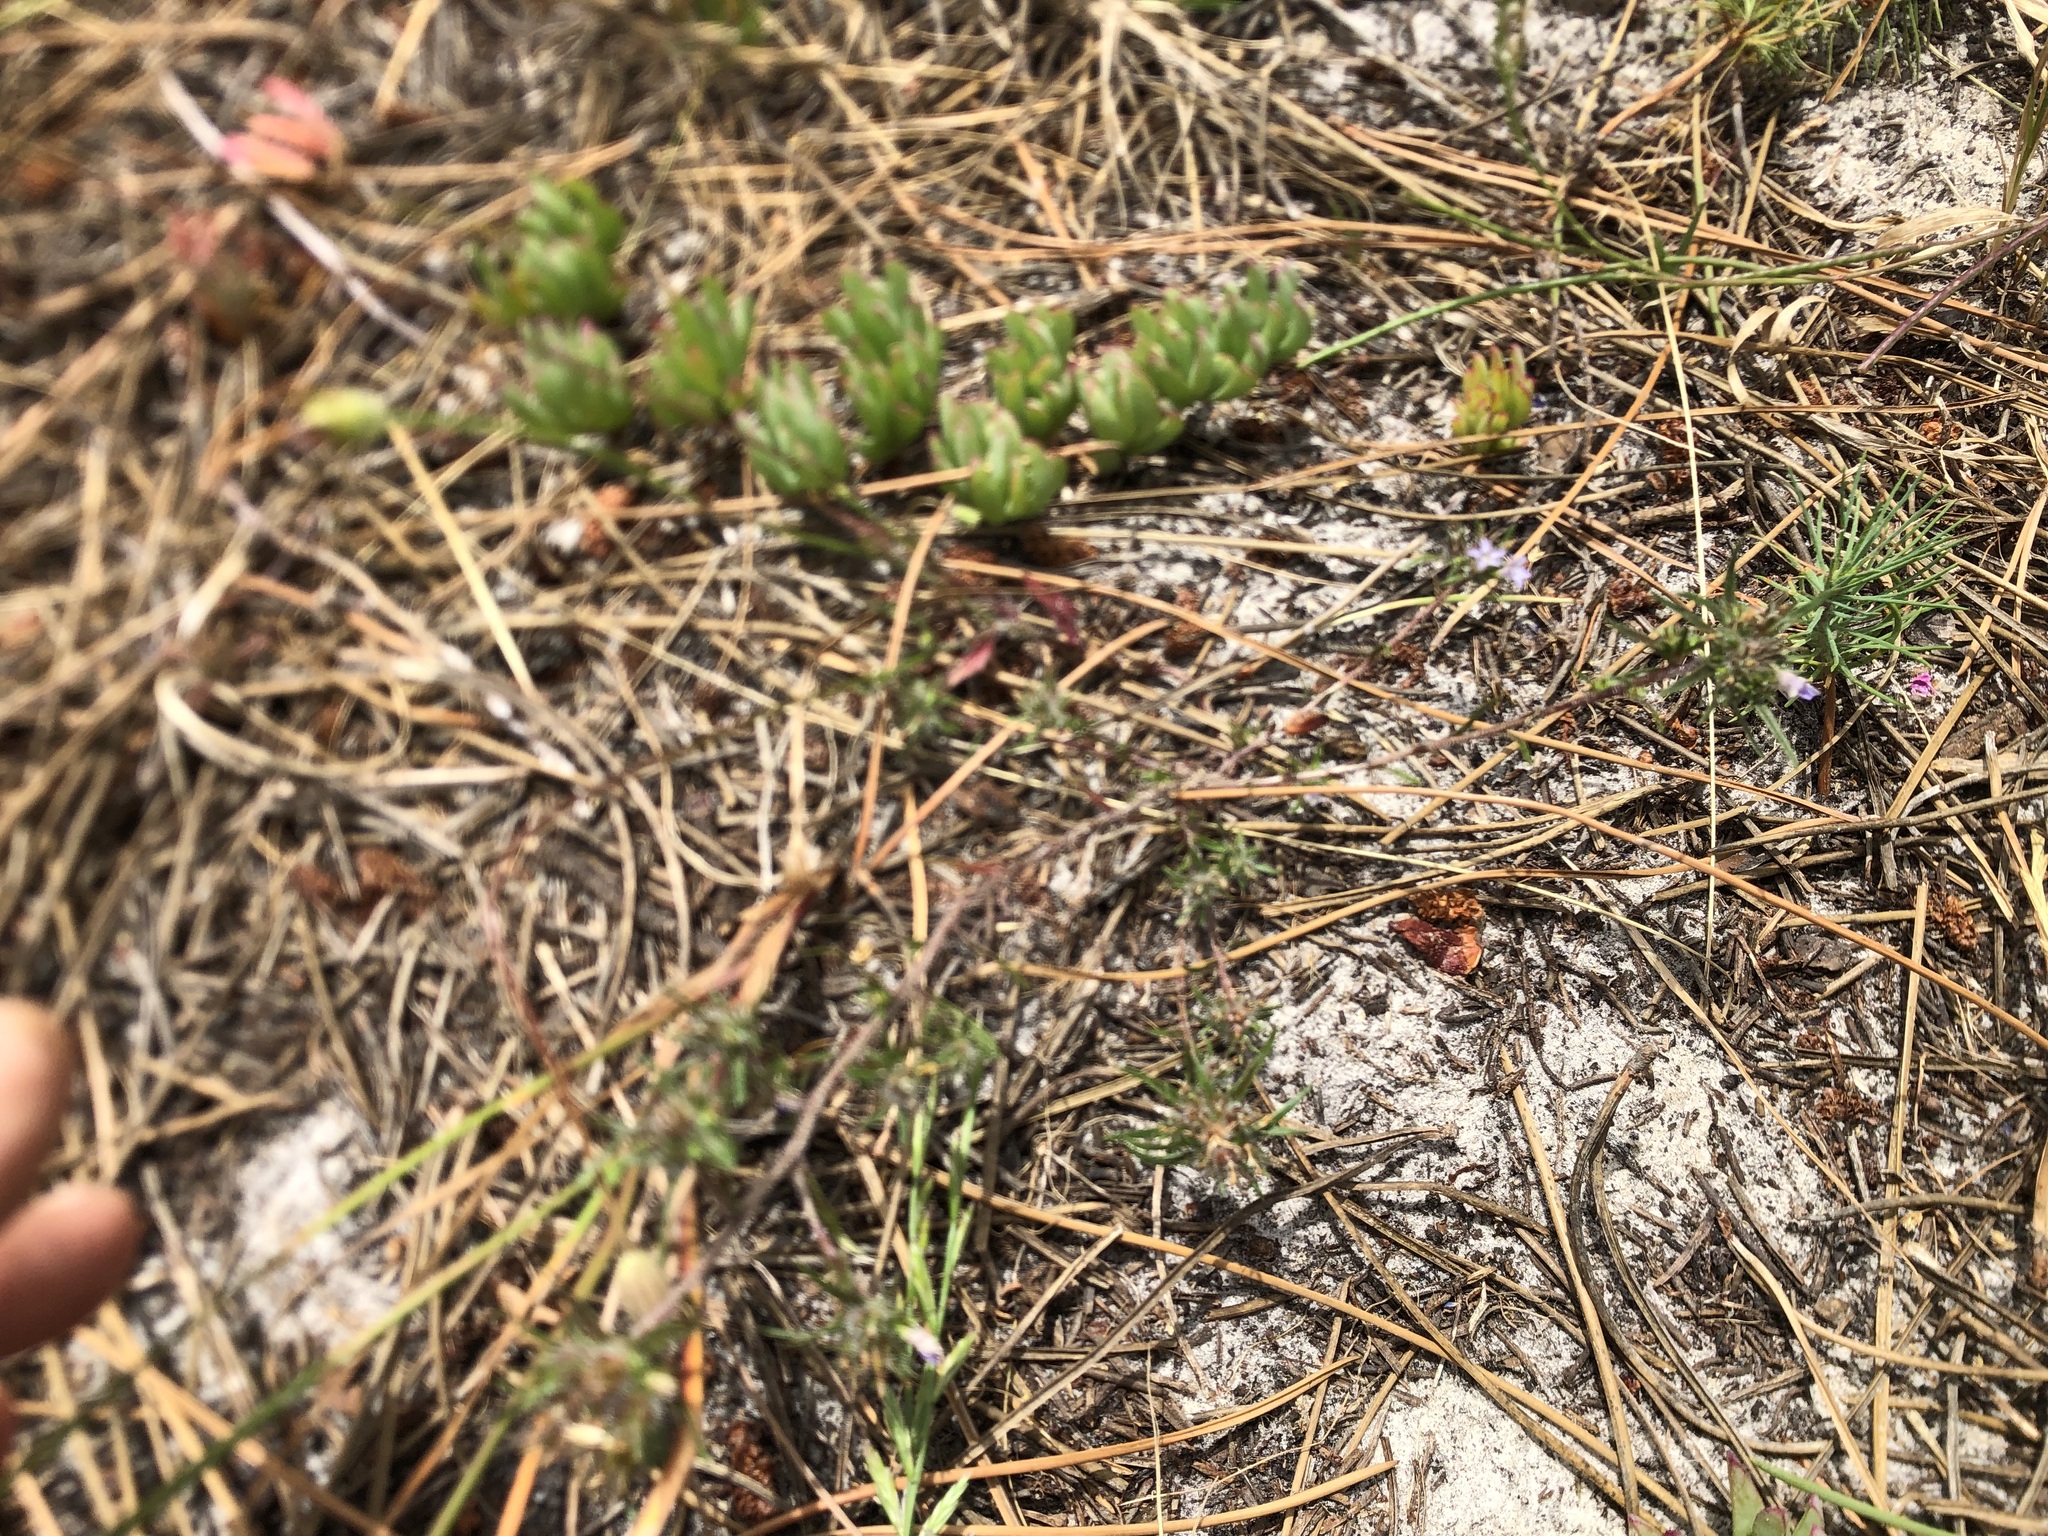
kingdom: Plantae
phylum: Tracheophyta
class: Magnoliopsida
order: Asterales
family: Campanulaceae
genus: Microcodon
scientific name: Microcodon glomeratus
